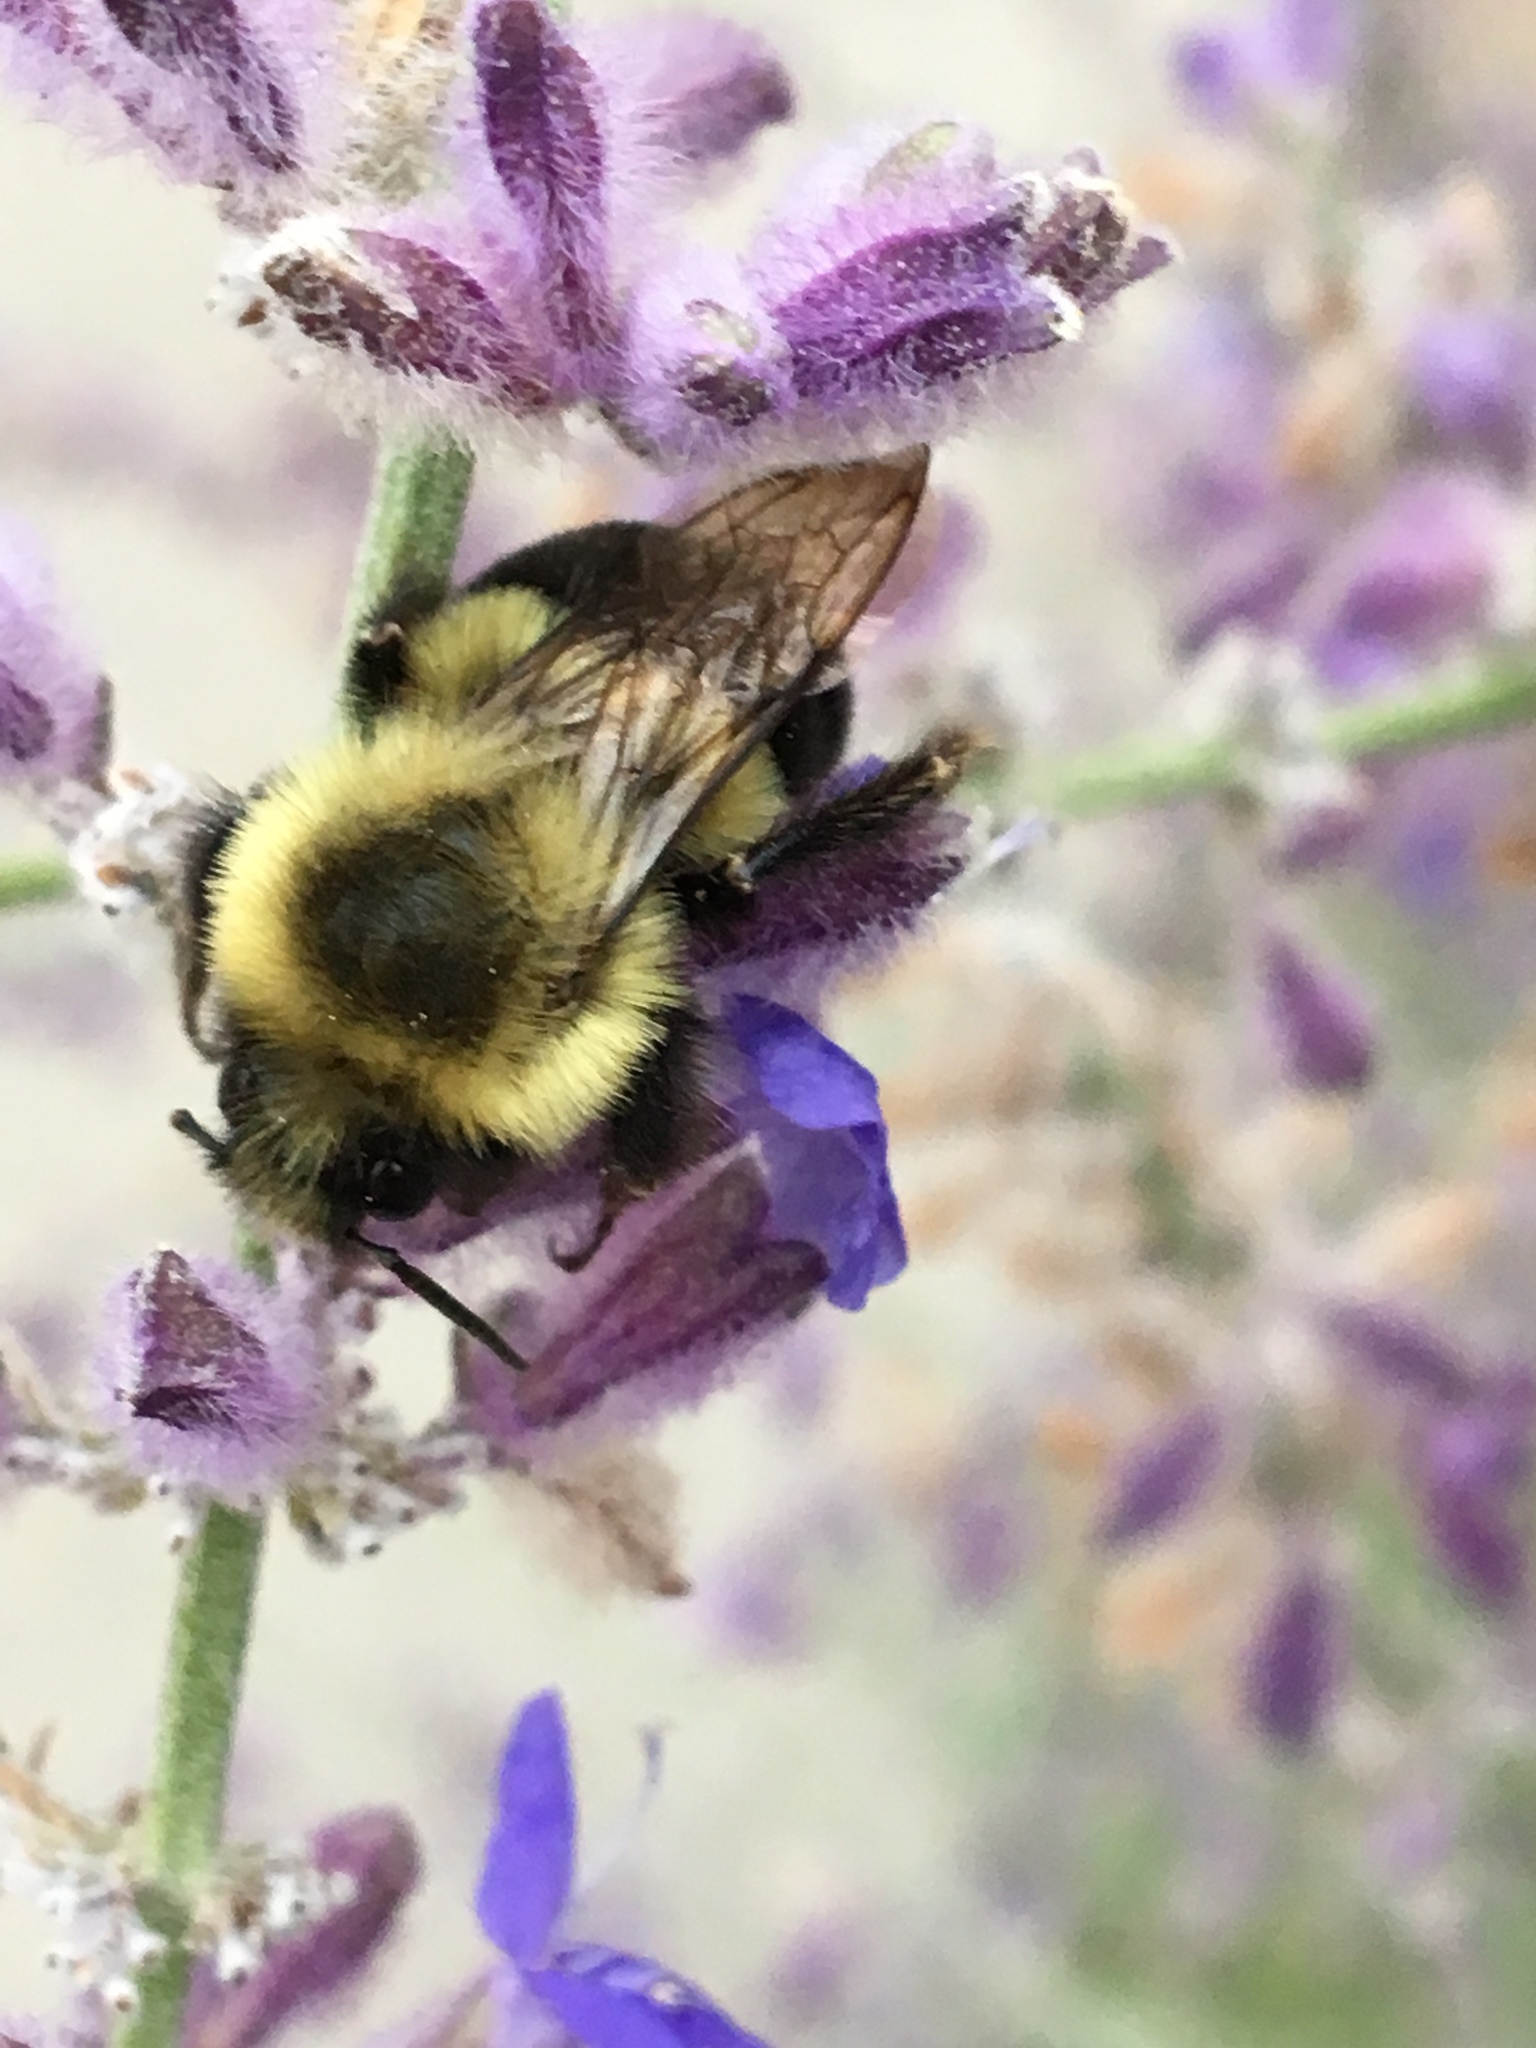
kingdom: Animalia
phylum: Arthropoda
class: Insecta
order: Hymenoptera
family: Apidae
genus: Bombus
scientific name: Bombus impatiens
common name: Common eastern bumble bee
